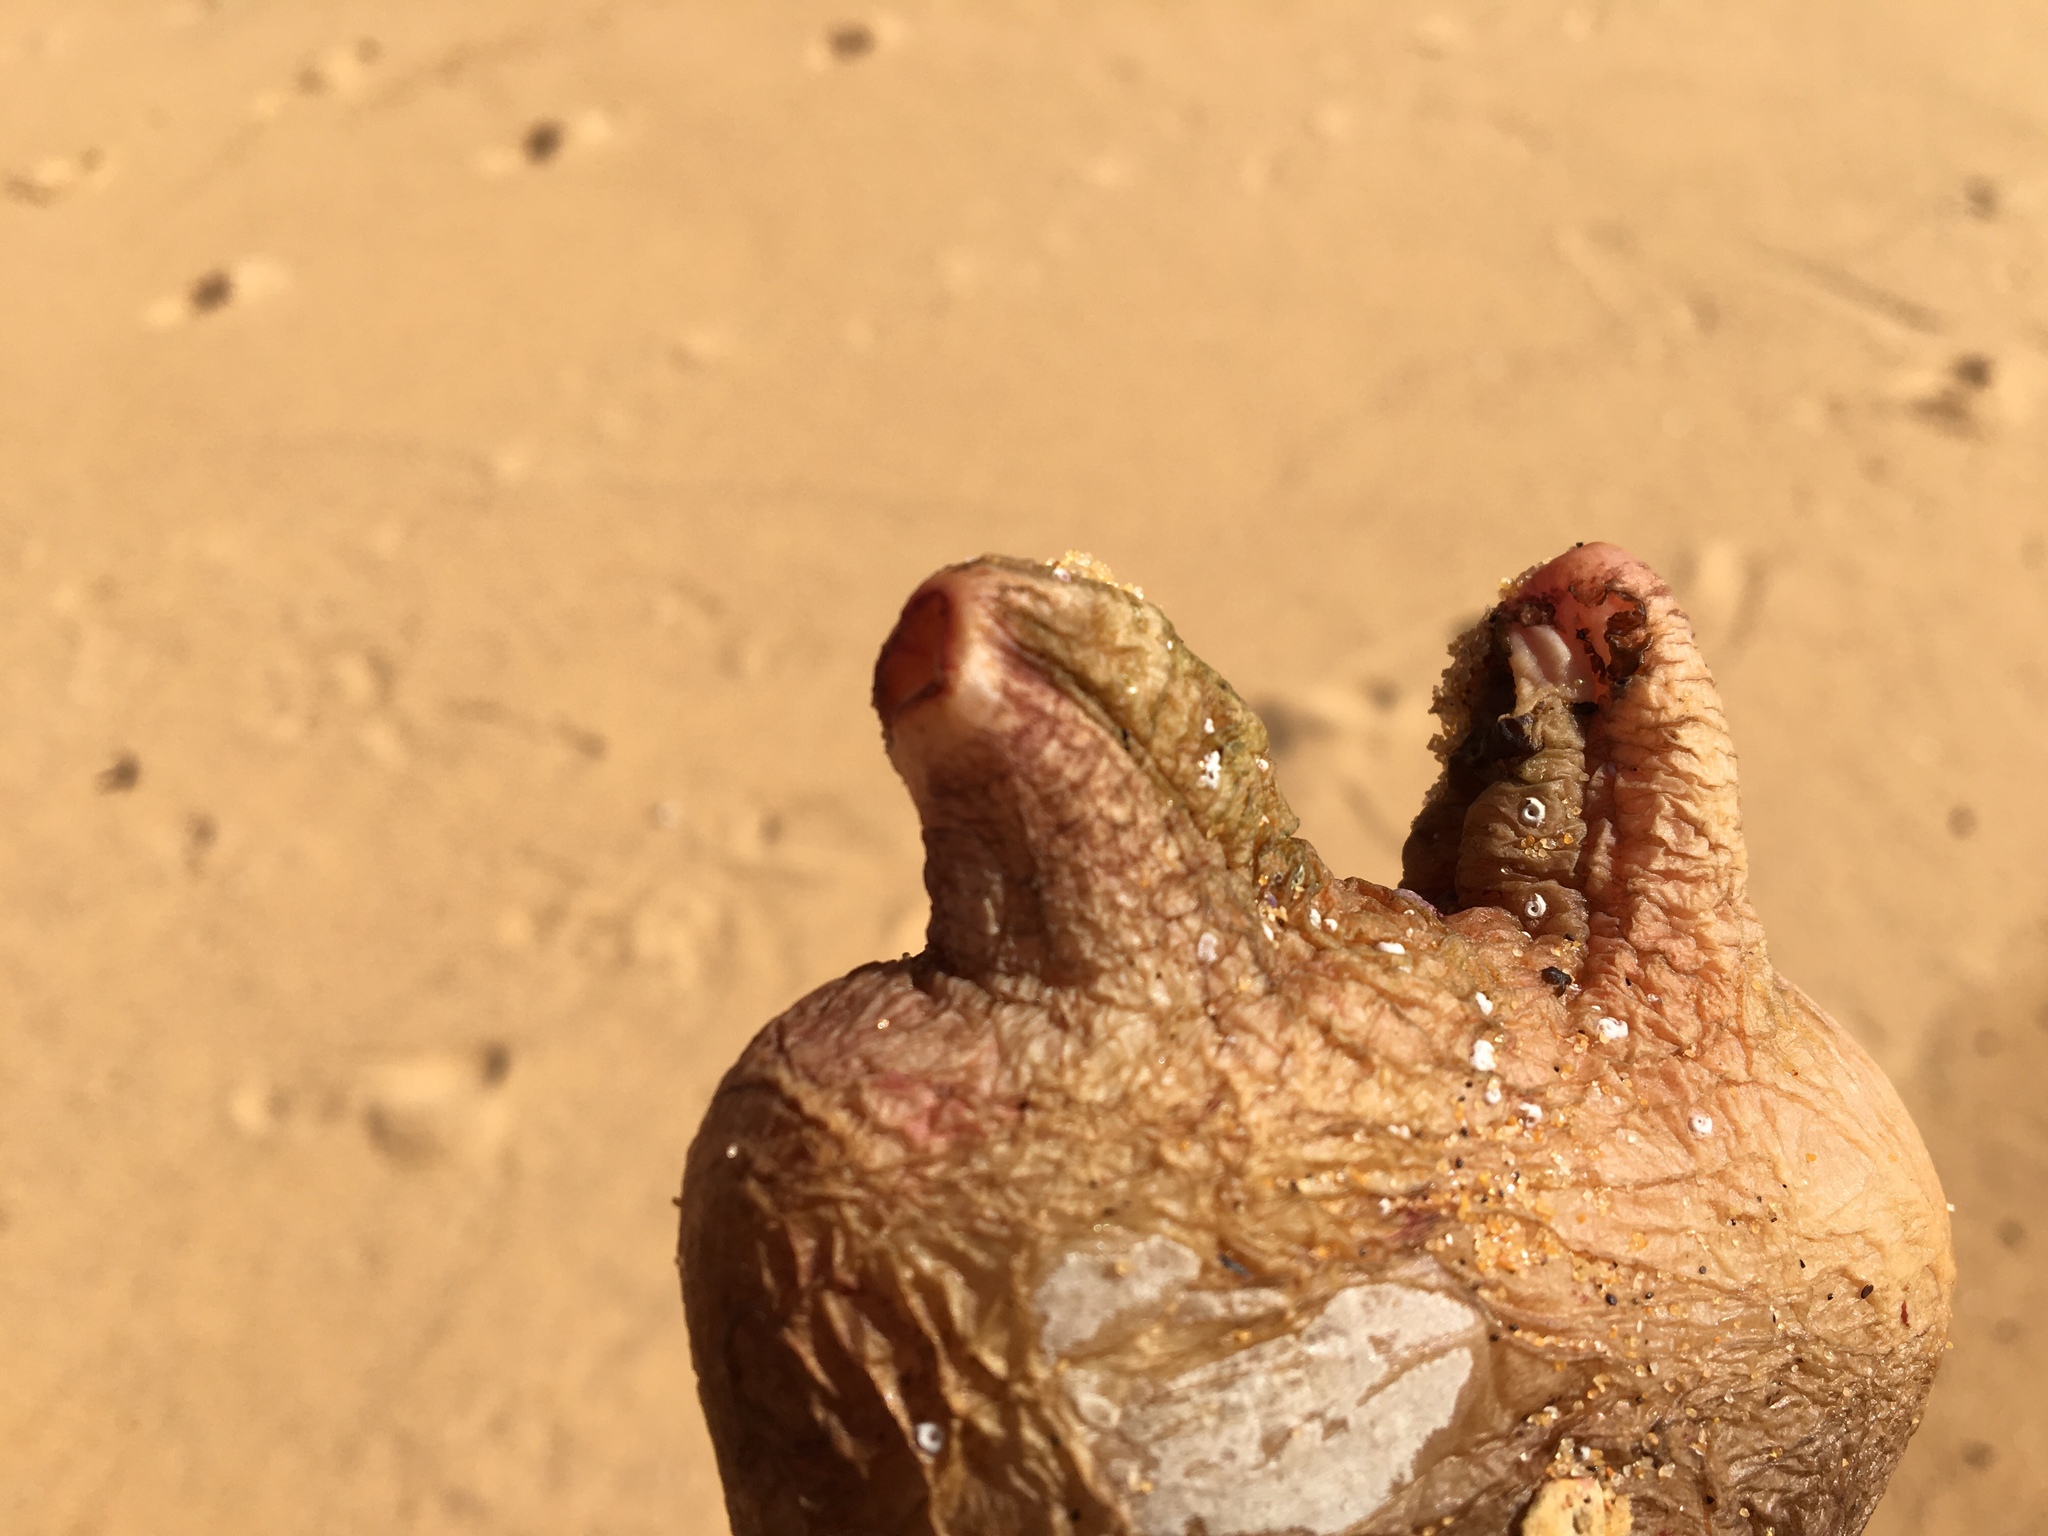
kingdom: Animalia
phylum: Chordata
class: Ascidiacea
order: Stolidobranchia
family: Pyuridae
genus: Herdmania
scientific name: Herdmania grandis
